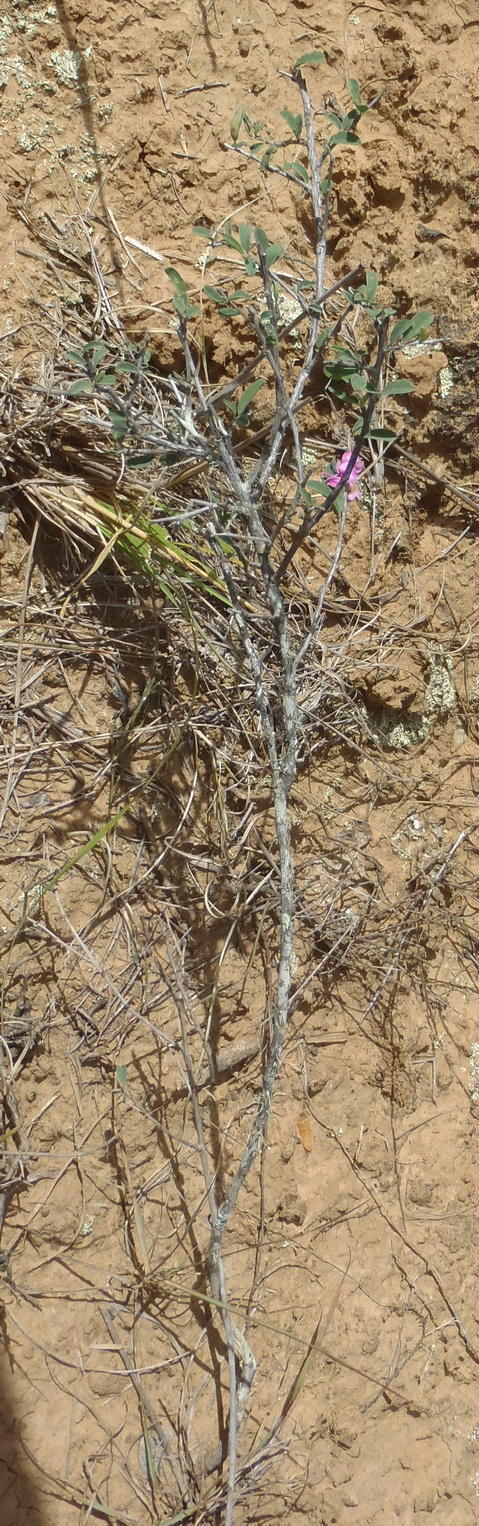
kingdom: Plantae
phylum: Tracheophyta
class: Magnoliopsida
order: Fabales
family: Fabaceae
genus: Indigofera
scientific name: Indigofera denudata
